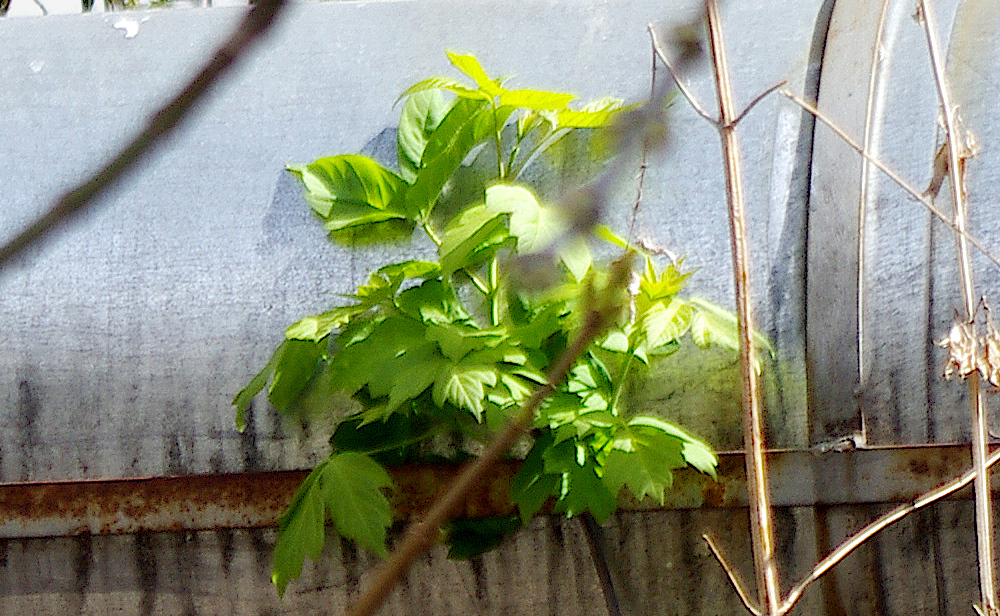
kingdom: Plantae
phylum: Tracheophyta
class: Magnoliopsida
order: Sapindales
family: Sapindaceae
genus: Acer
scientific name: Acer negundo
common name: Ashleaf maple
